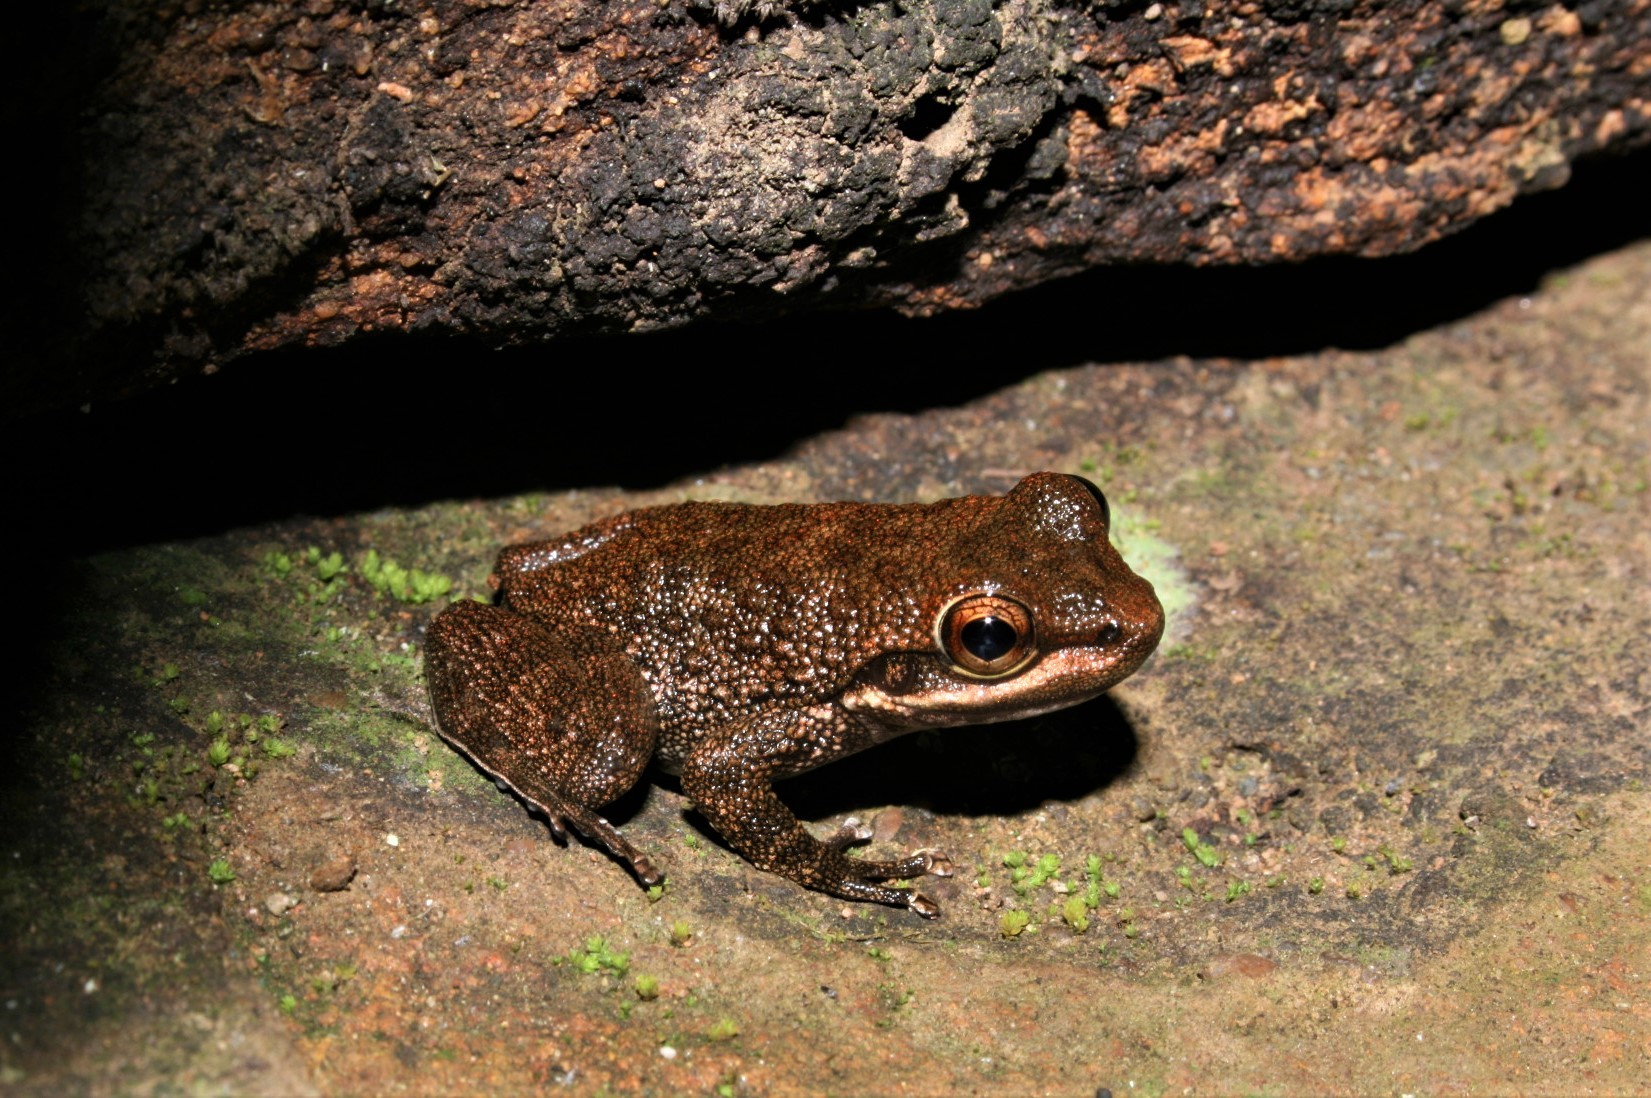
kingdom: Animalia
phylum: Chordata
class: Amphibia
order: Anura
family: Odontobatrachidae
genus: Odontobatrachus
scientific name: Odontobatrachus smithi
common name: Smith's torrent-frog
